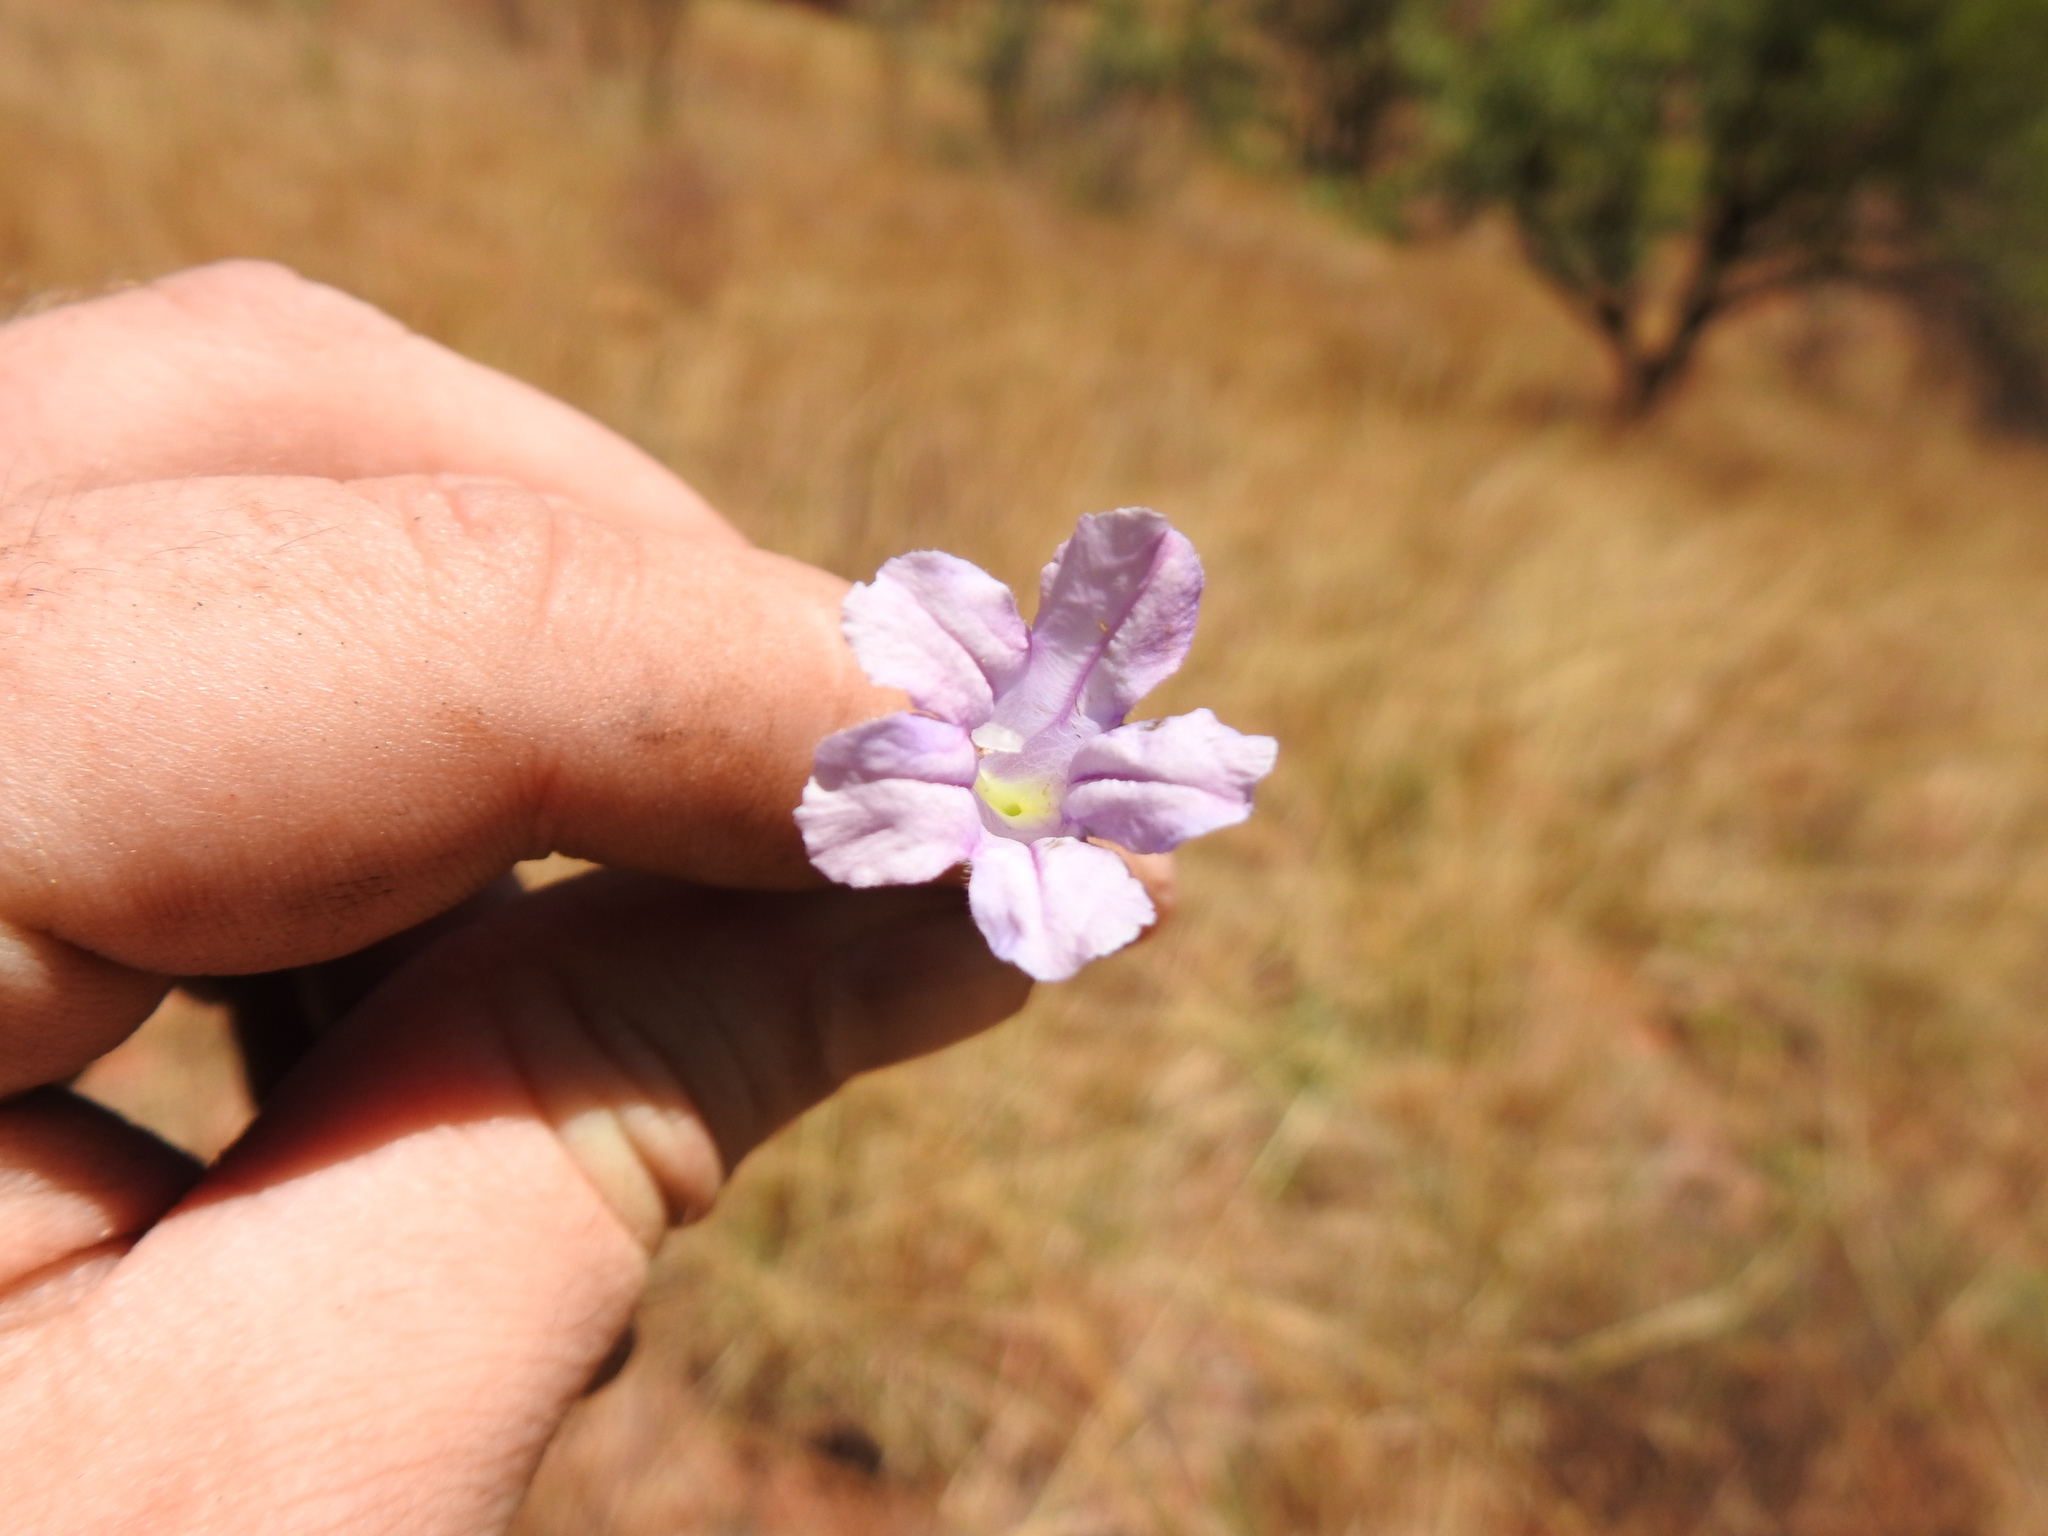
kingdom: Plantae
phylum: Tracheophyta
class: Magnoliopsida
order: Lamiales
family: Acanthaceae
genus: Ruellia
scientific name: Ruellia cordata
